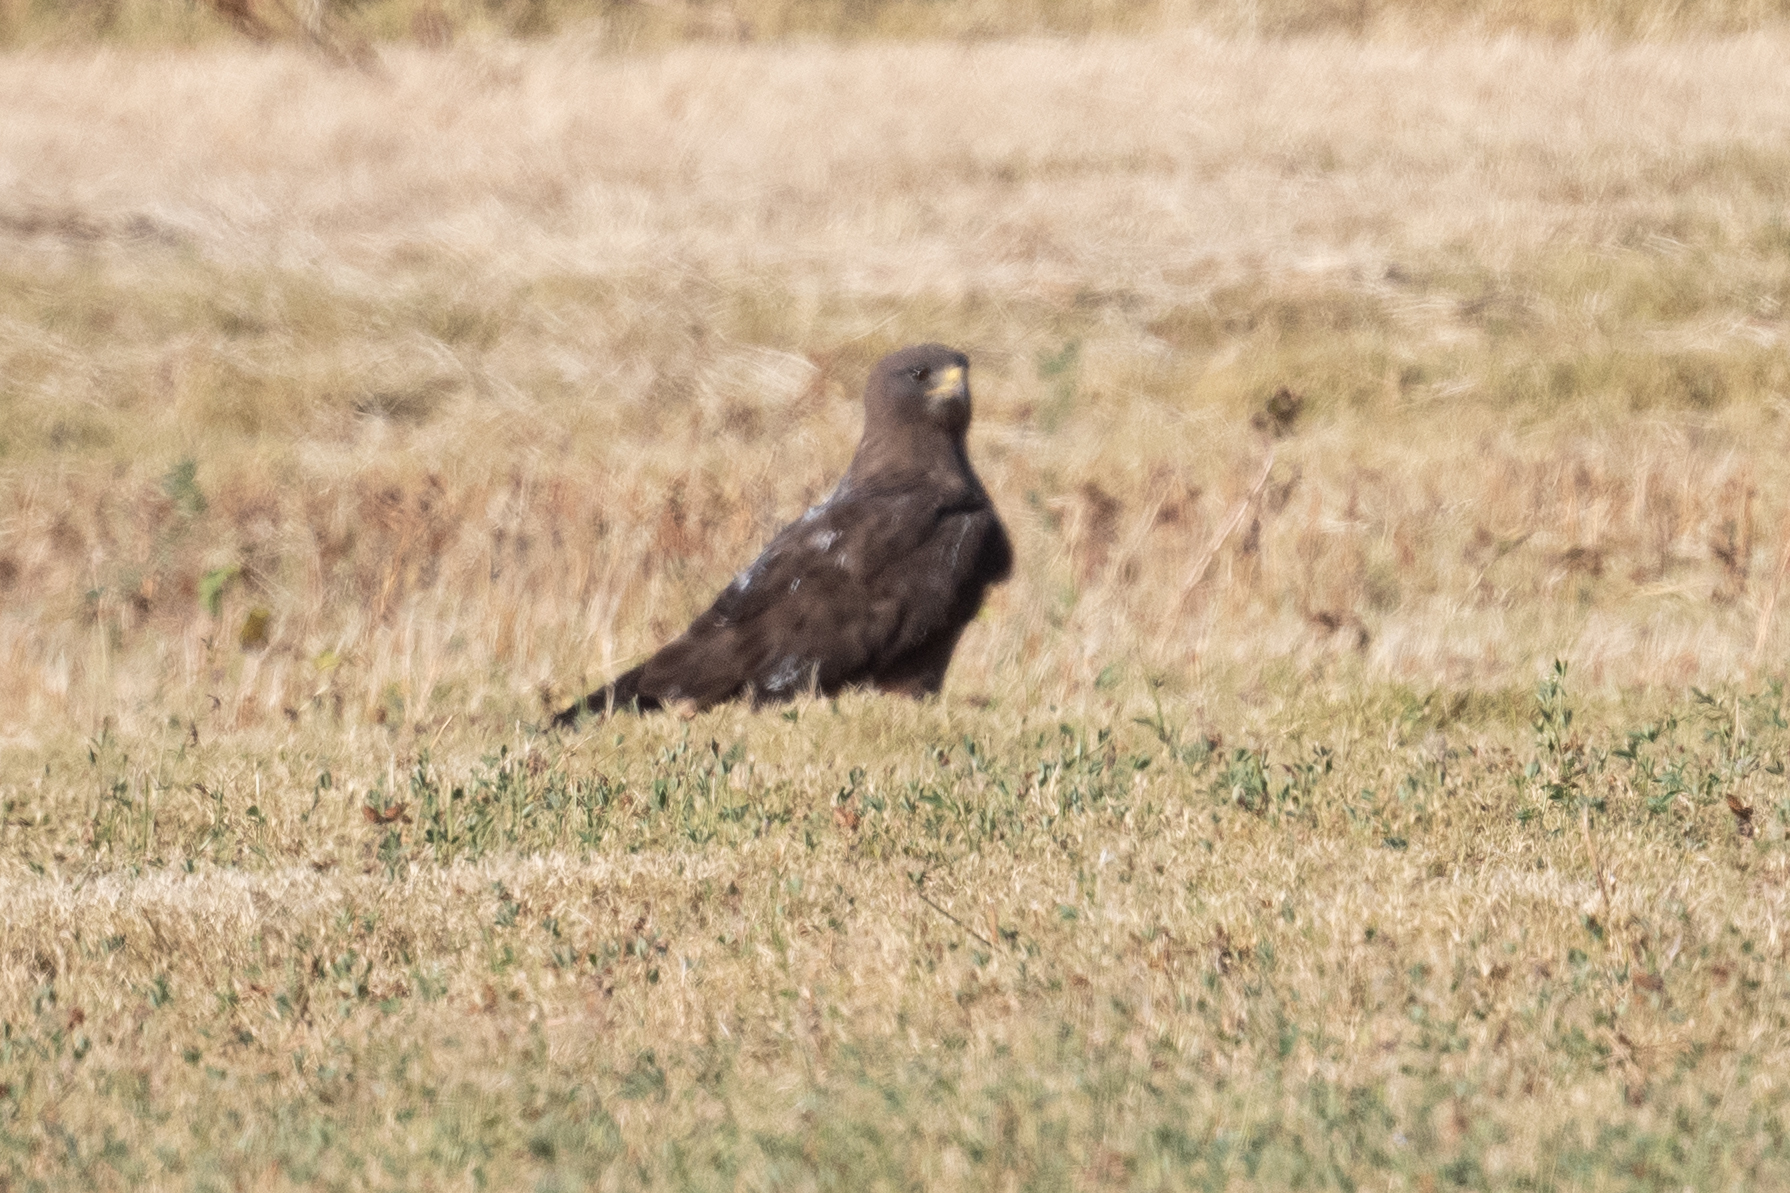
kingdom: Animalia
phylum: Chordata
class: Aves
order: Accipitriformes
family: Accipitridae
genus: Buteo
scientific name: Buteo swainsoni
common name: Swainson's hawk
